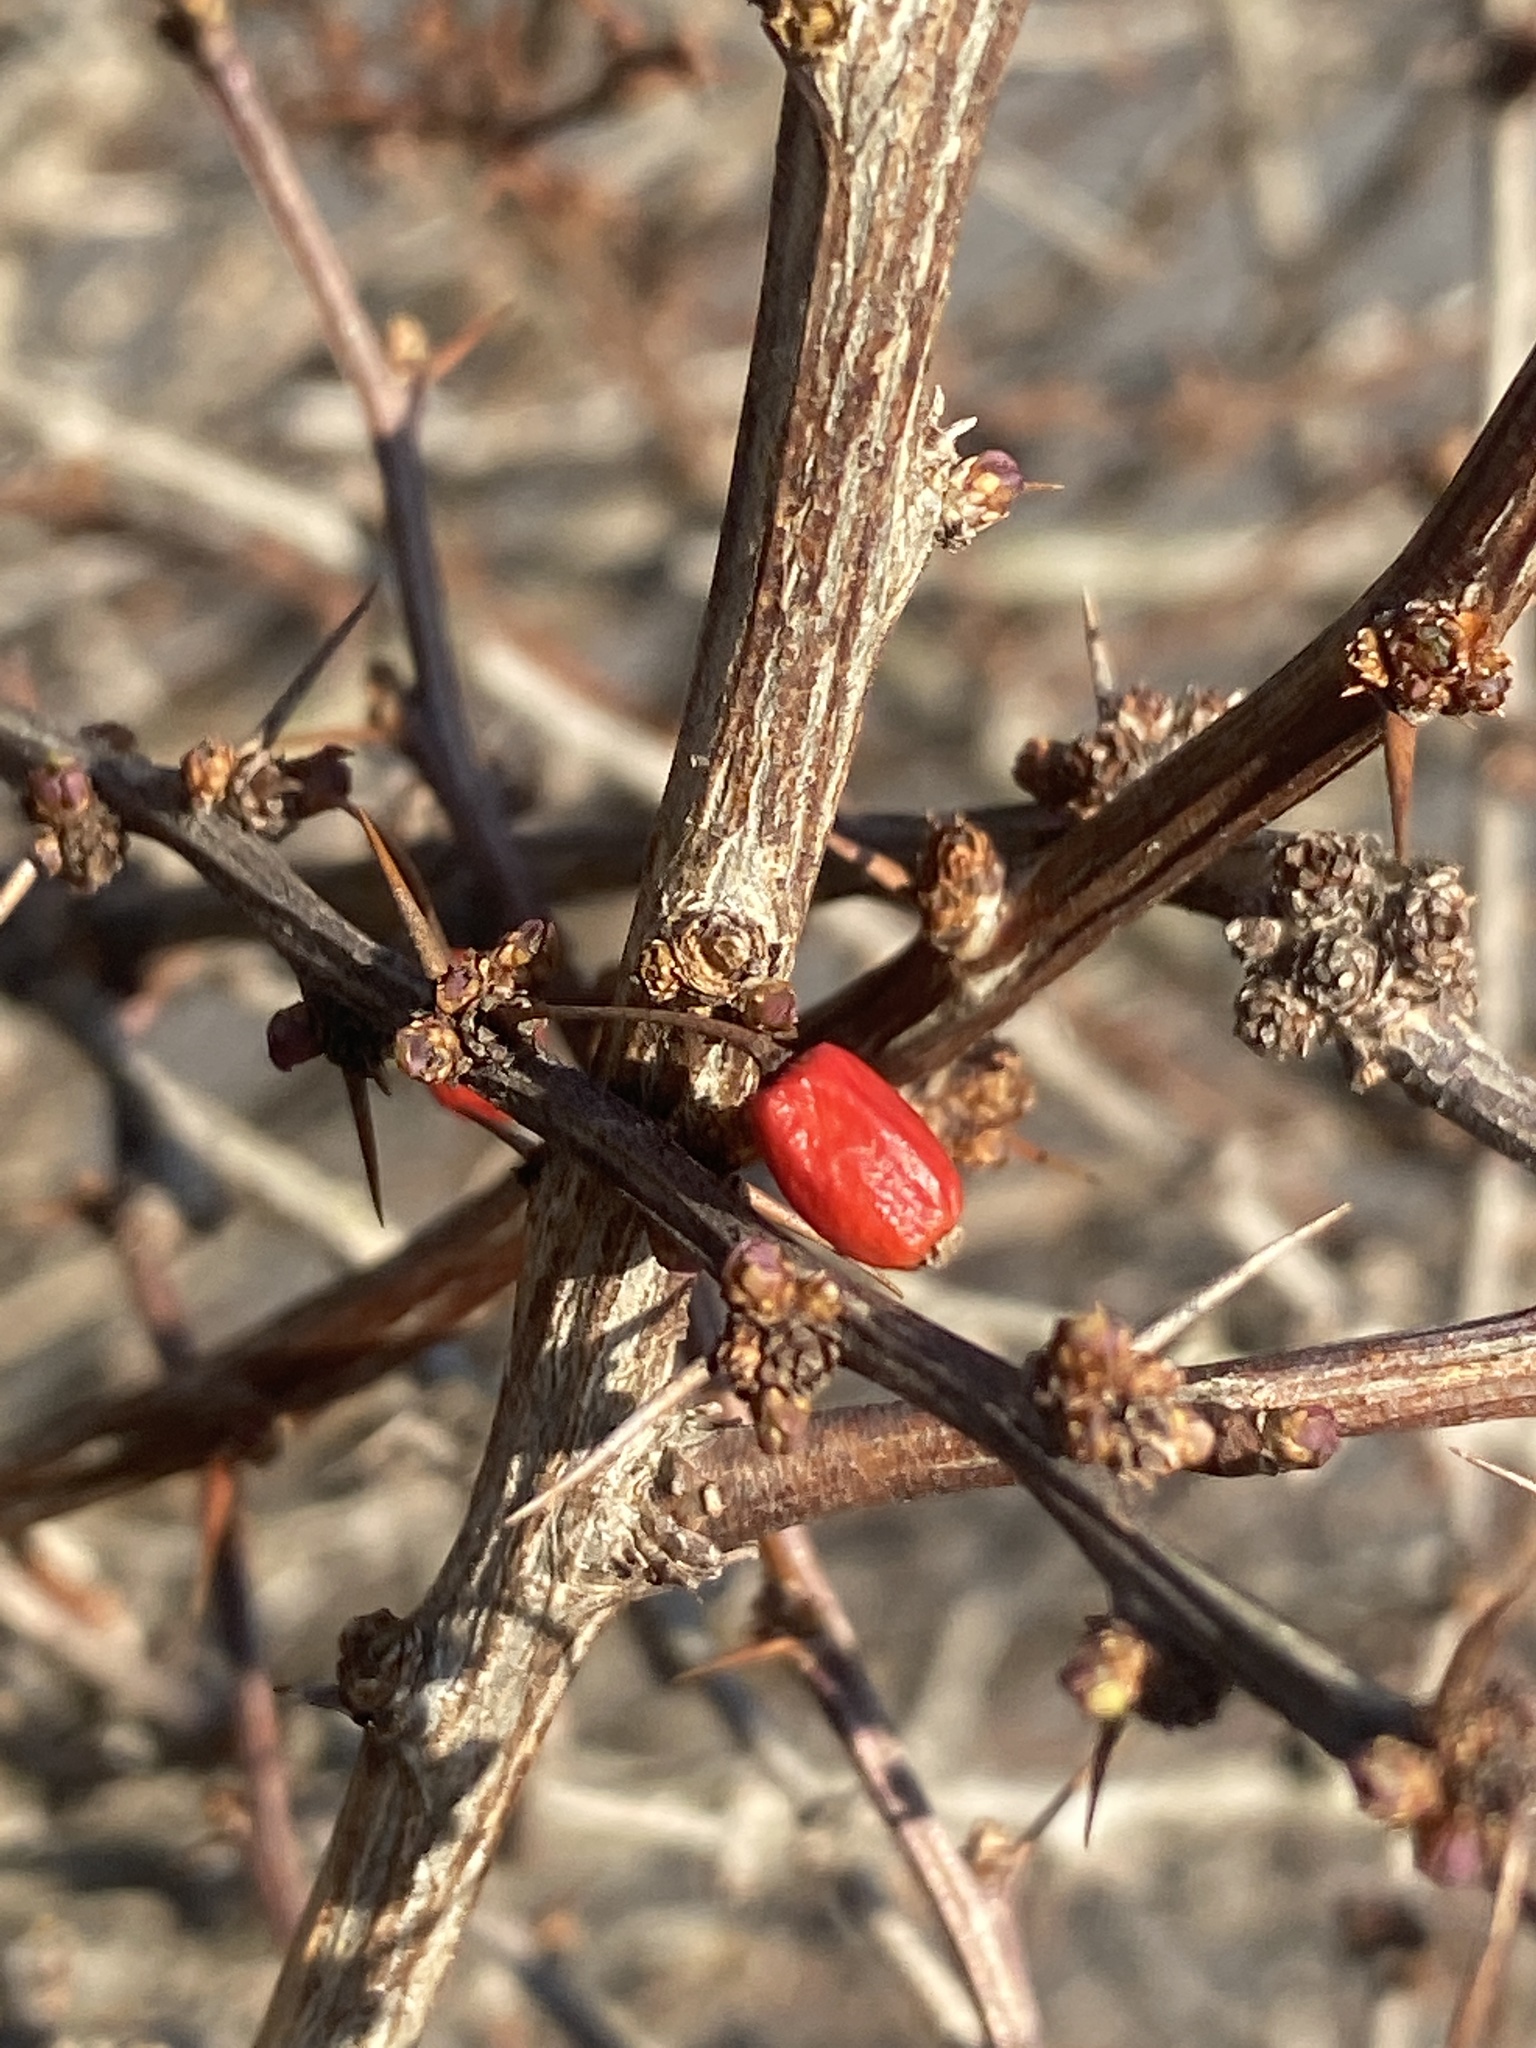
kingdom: Plantae
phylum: Tracheophyta
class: Magnoliopsida
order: Ranunculales
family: Berberidaceae
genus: Berberis
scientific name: Berberis thunbergii
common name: Japanese barberry
